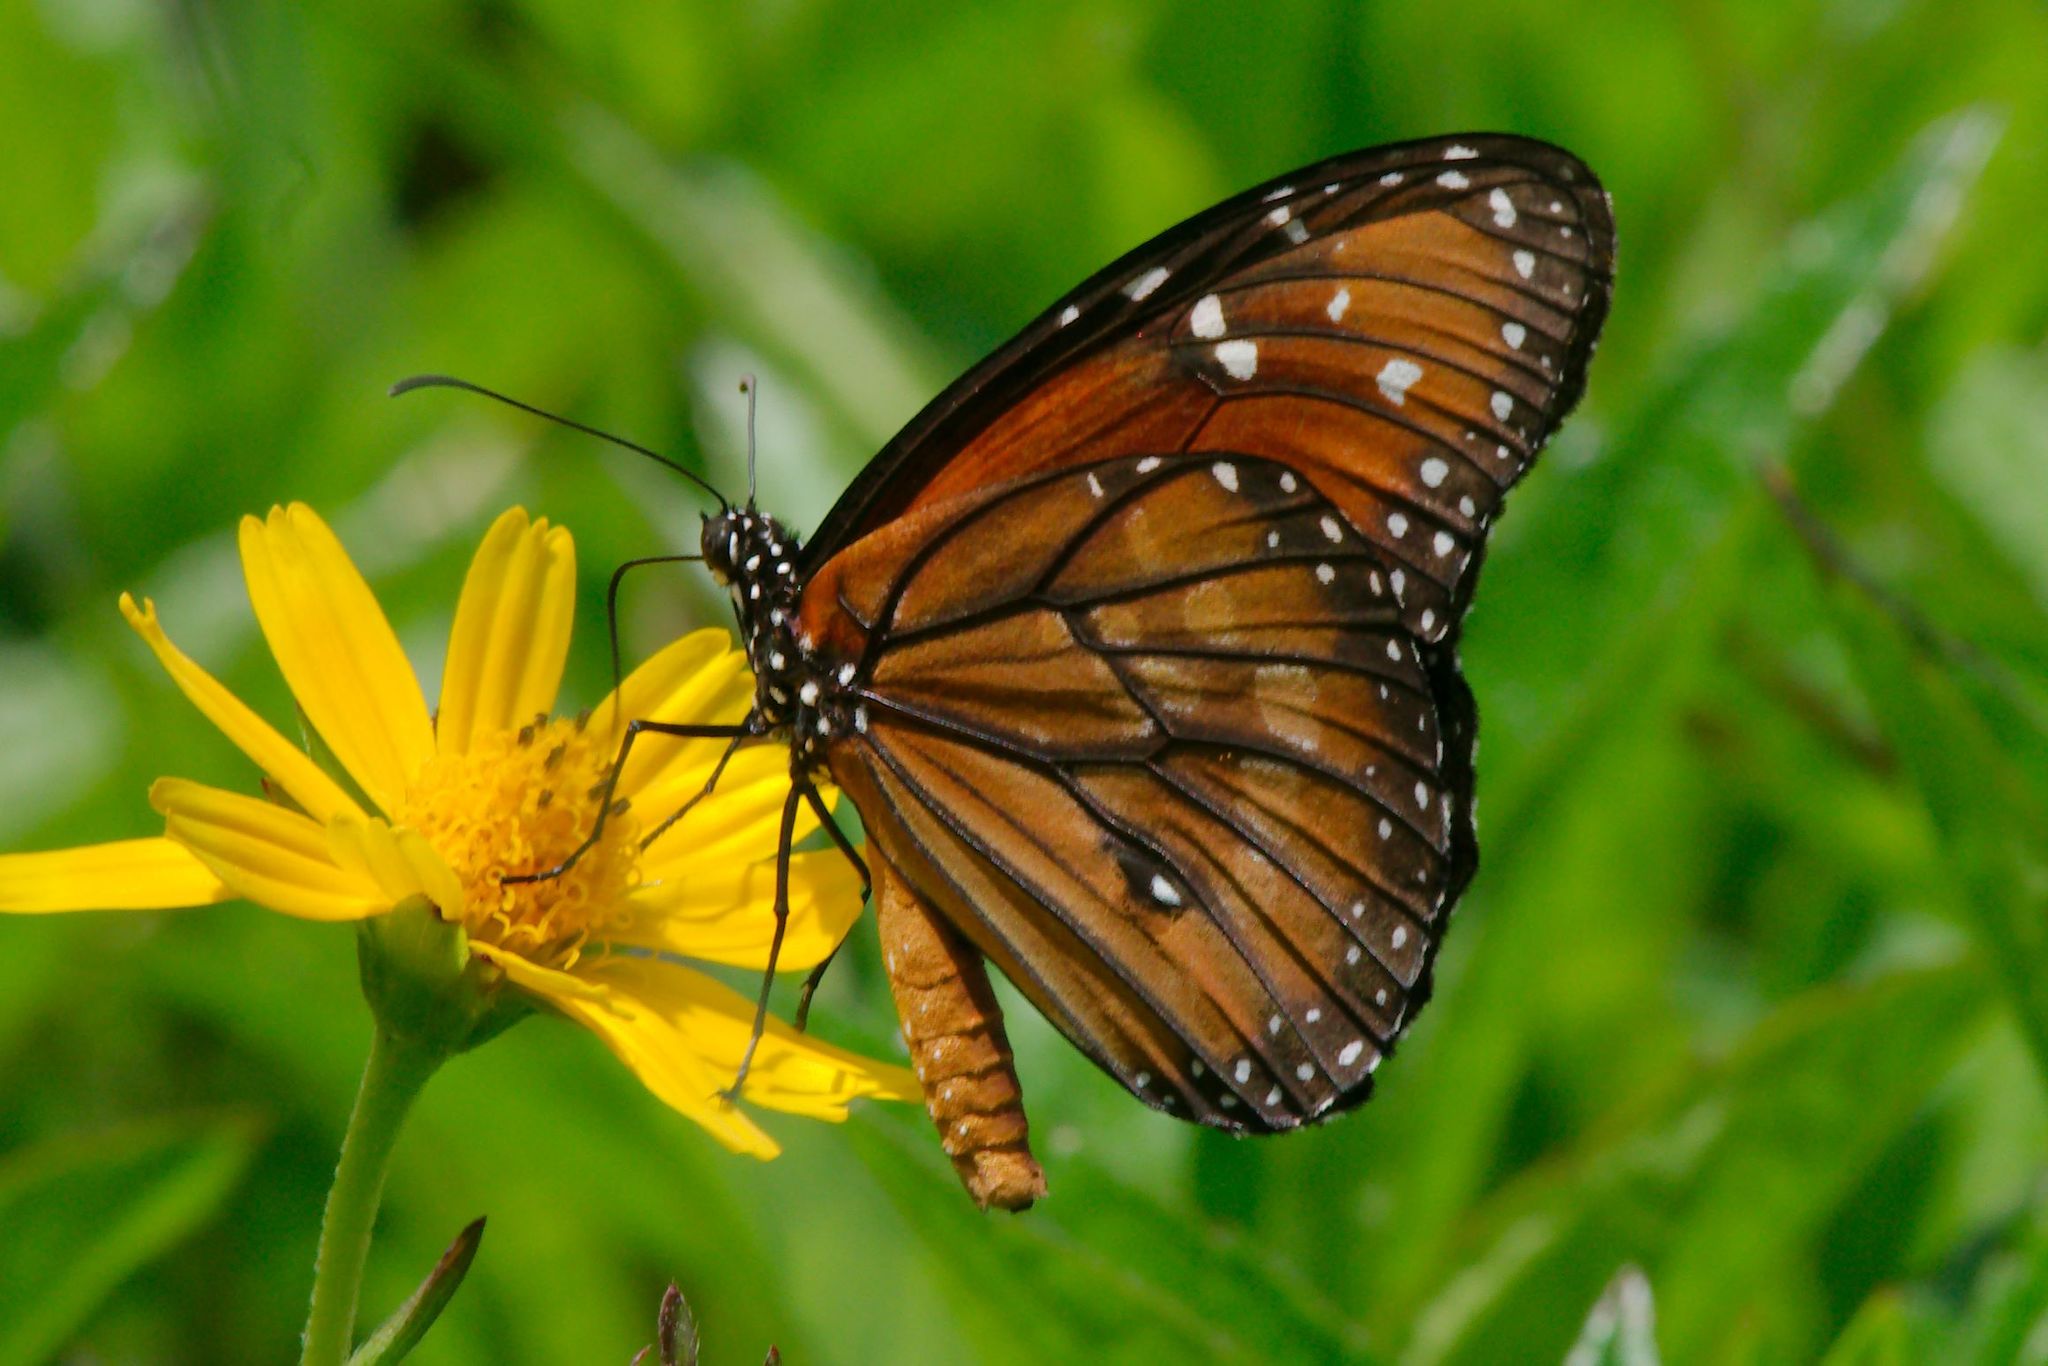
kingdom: Animalia
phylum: Arthropoda
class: Insecta
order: Lepidoptera
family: Nymphalidae
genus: Danaus
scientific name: Danaus eresimus
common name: Soldier
